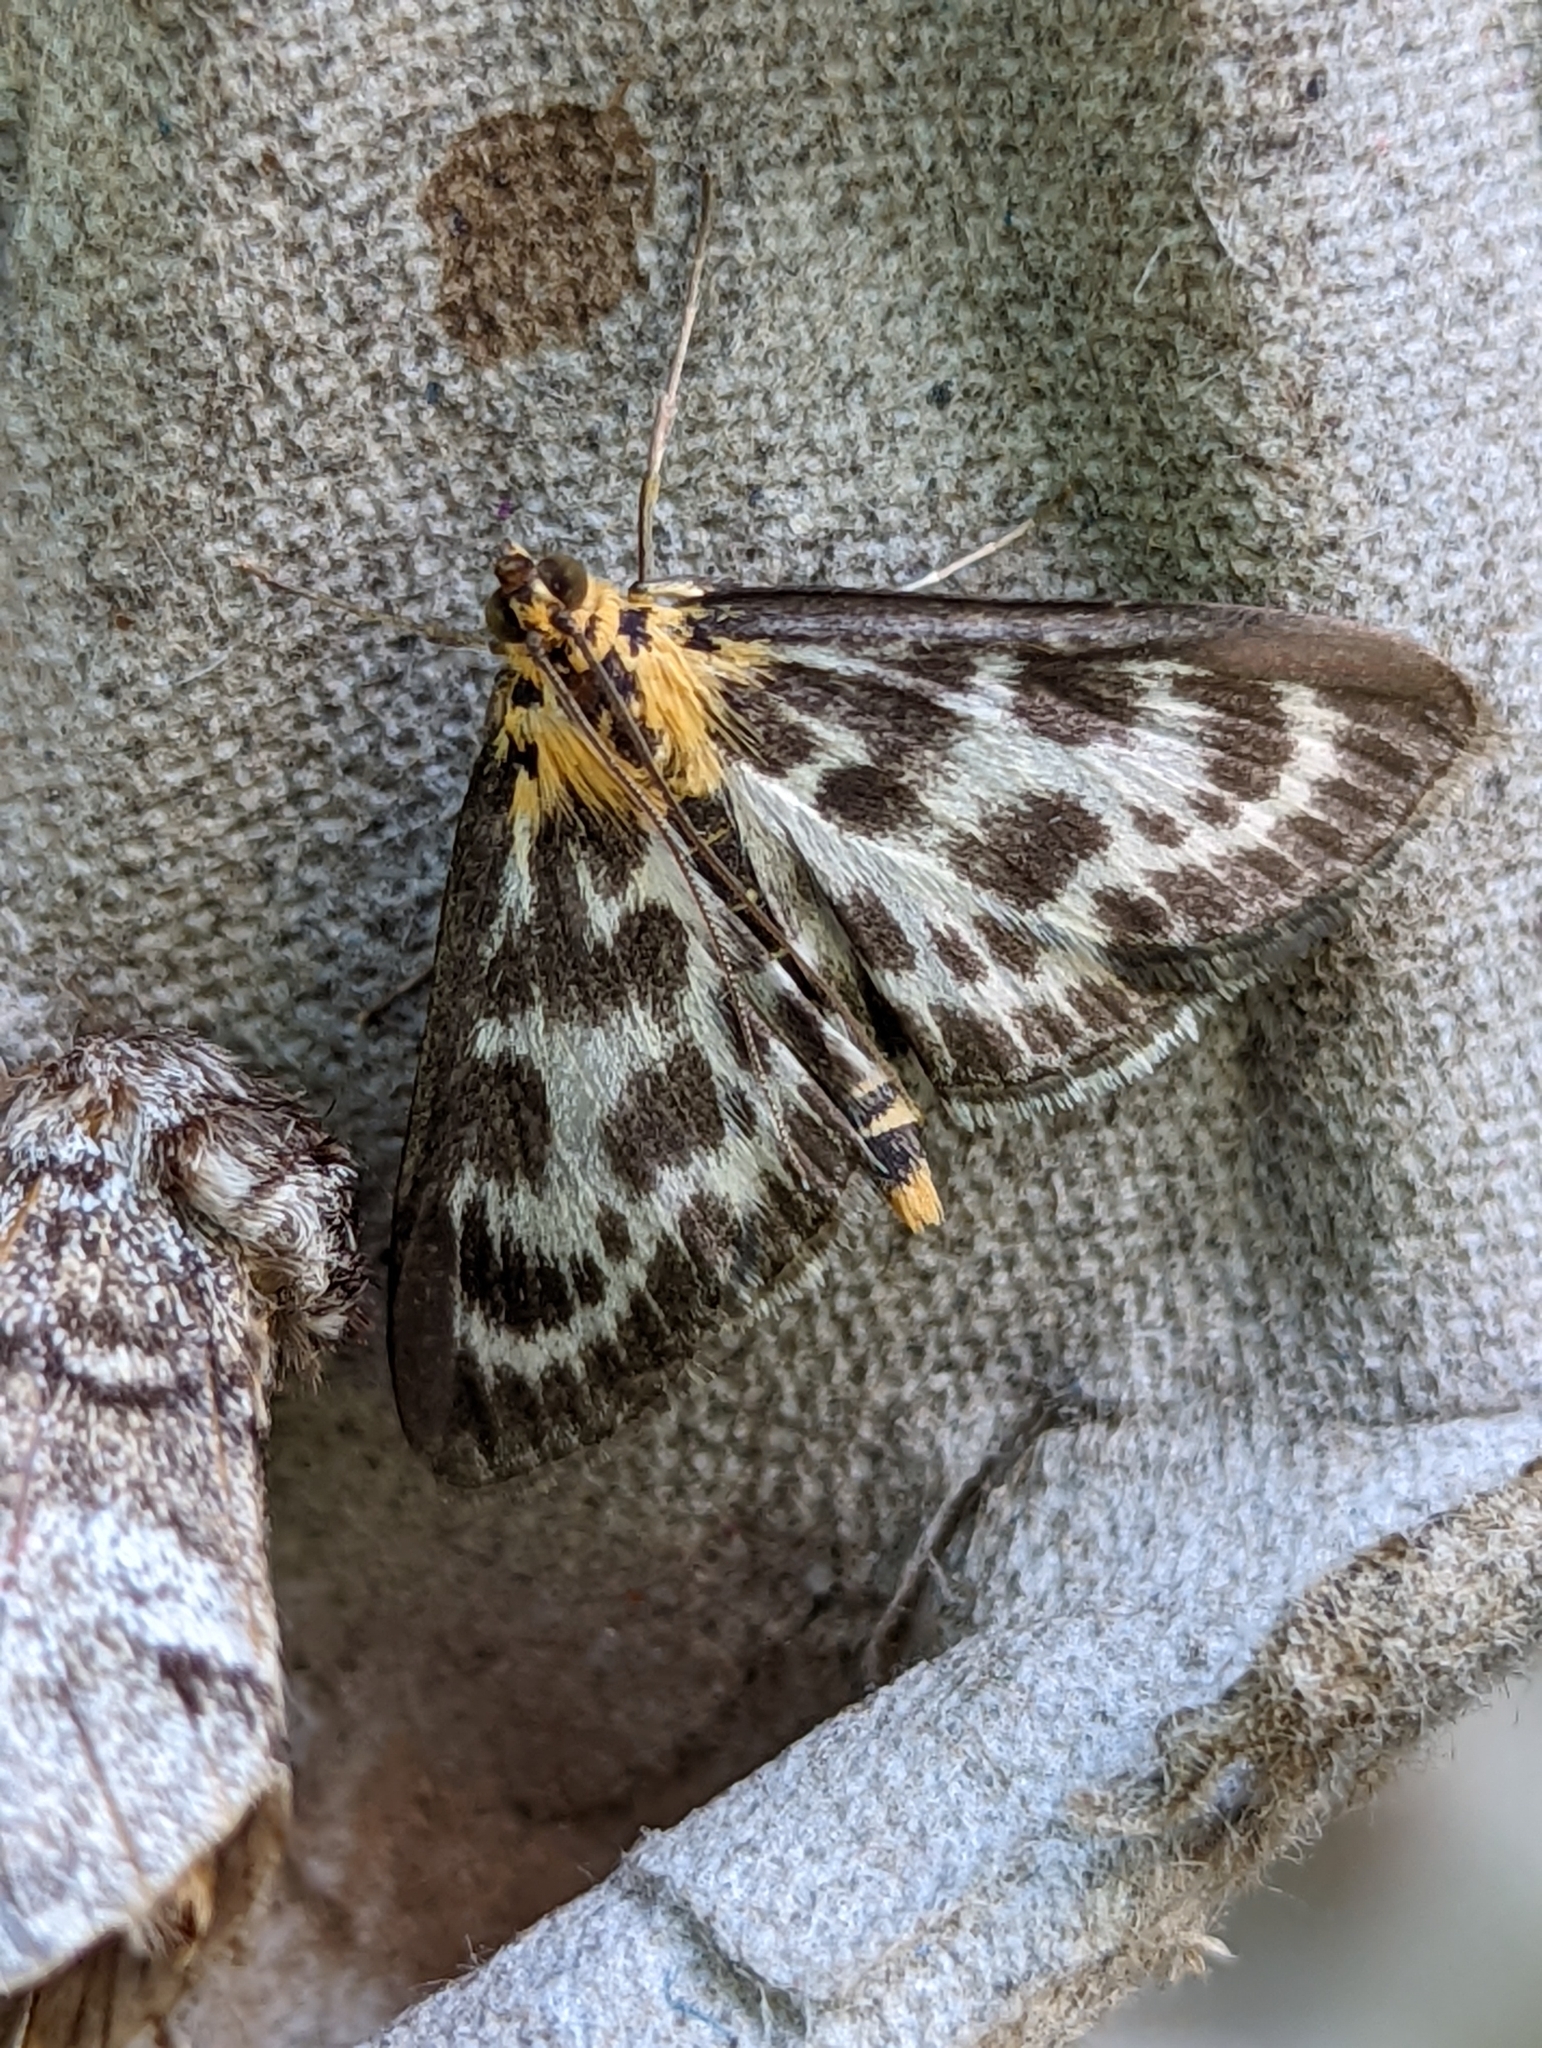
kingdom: Animalia
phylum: Arthropoda
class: Insecta
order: Lepidoptera
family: Crambidae
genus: Anania
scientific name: Anania hortulata
